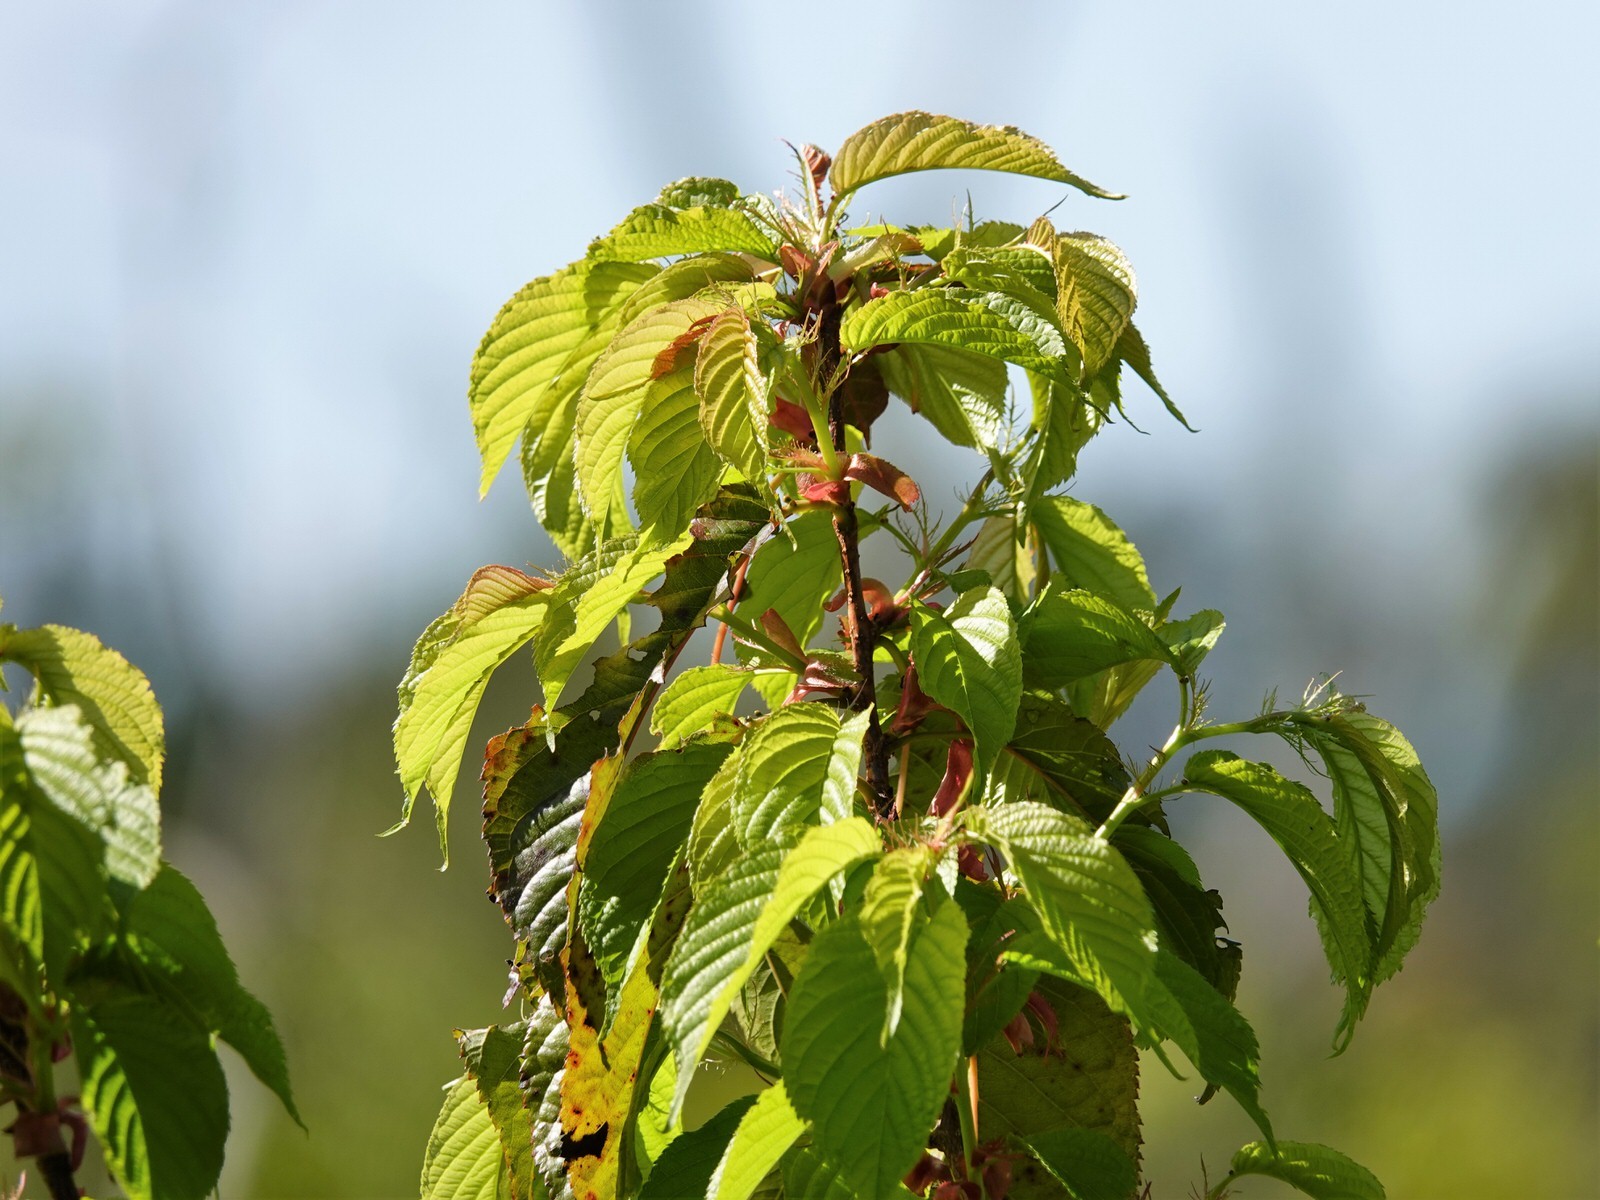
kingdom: Plantae
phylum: Tracheophyta
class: Magnoliopsida
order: Rosales
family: Rosaceae
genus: Prunus
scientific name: Prunus campanulata
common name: Taiwan flowering cherry
